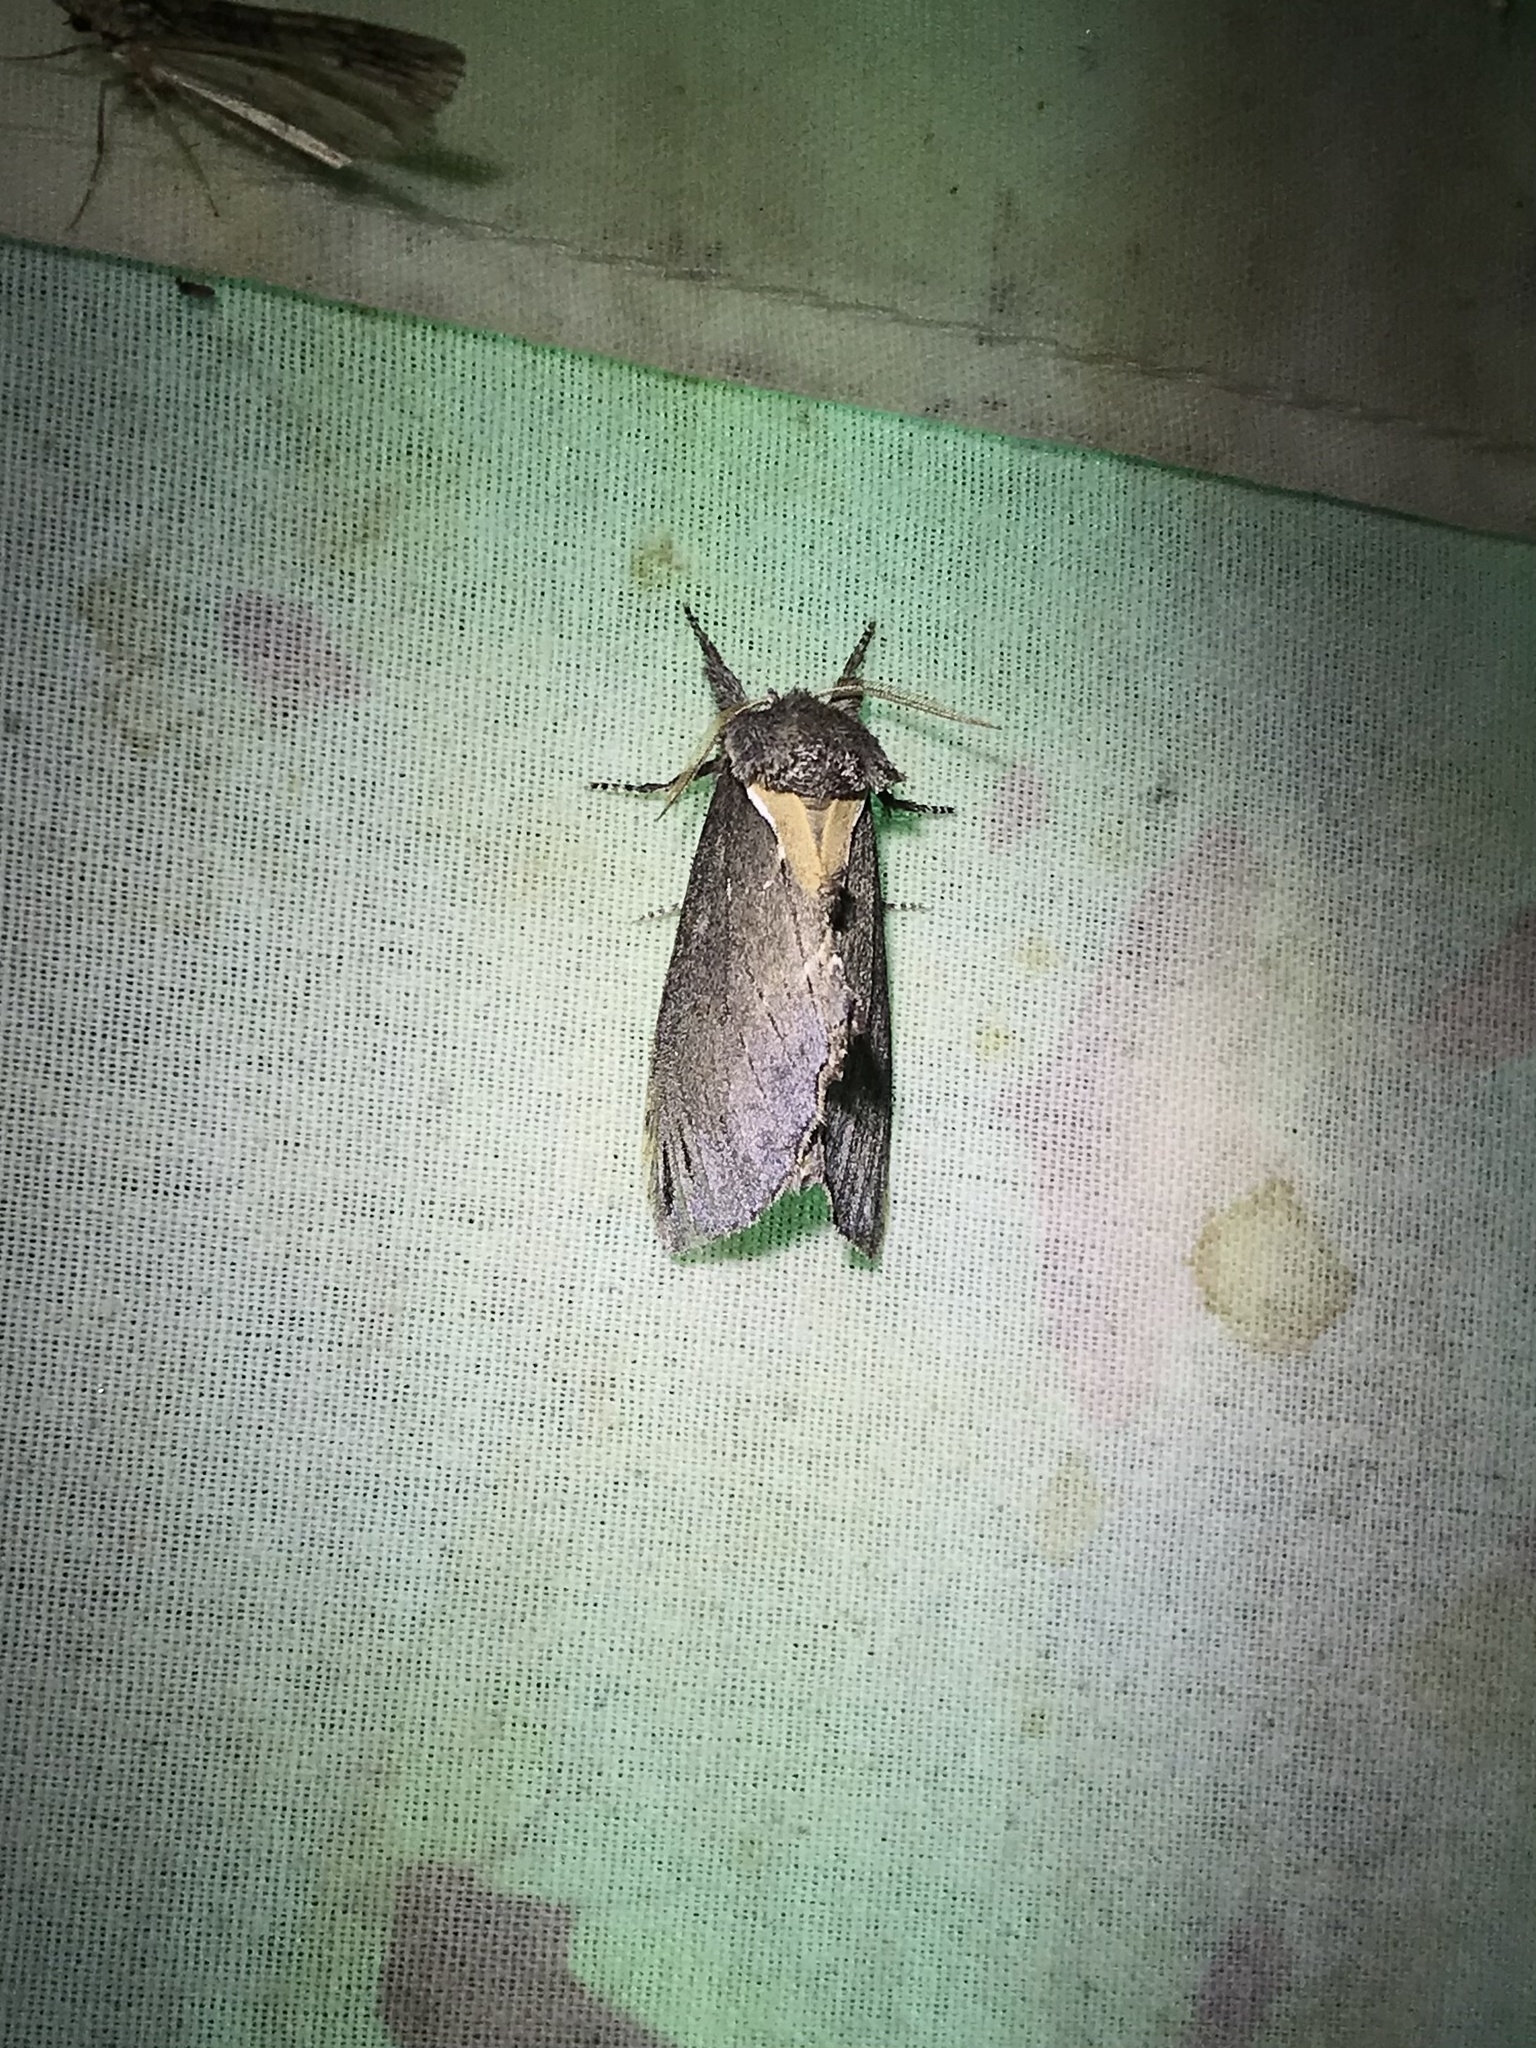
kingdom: Animalia
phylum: Arthropoda
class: Insecta
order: Lepidoptera
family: Notodontidae
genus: Pheosidea
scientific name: Pheosidea elegans
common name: Elegant prominent
